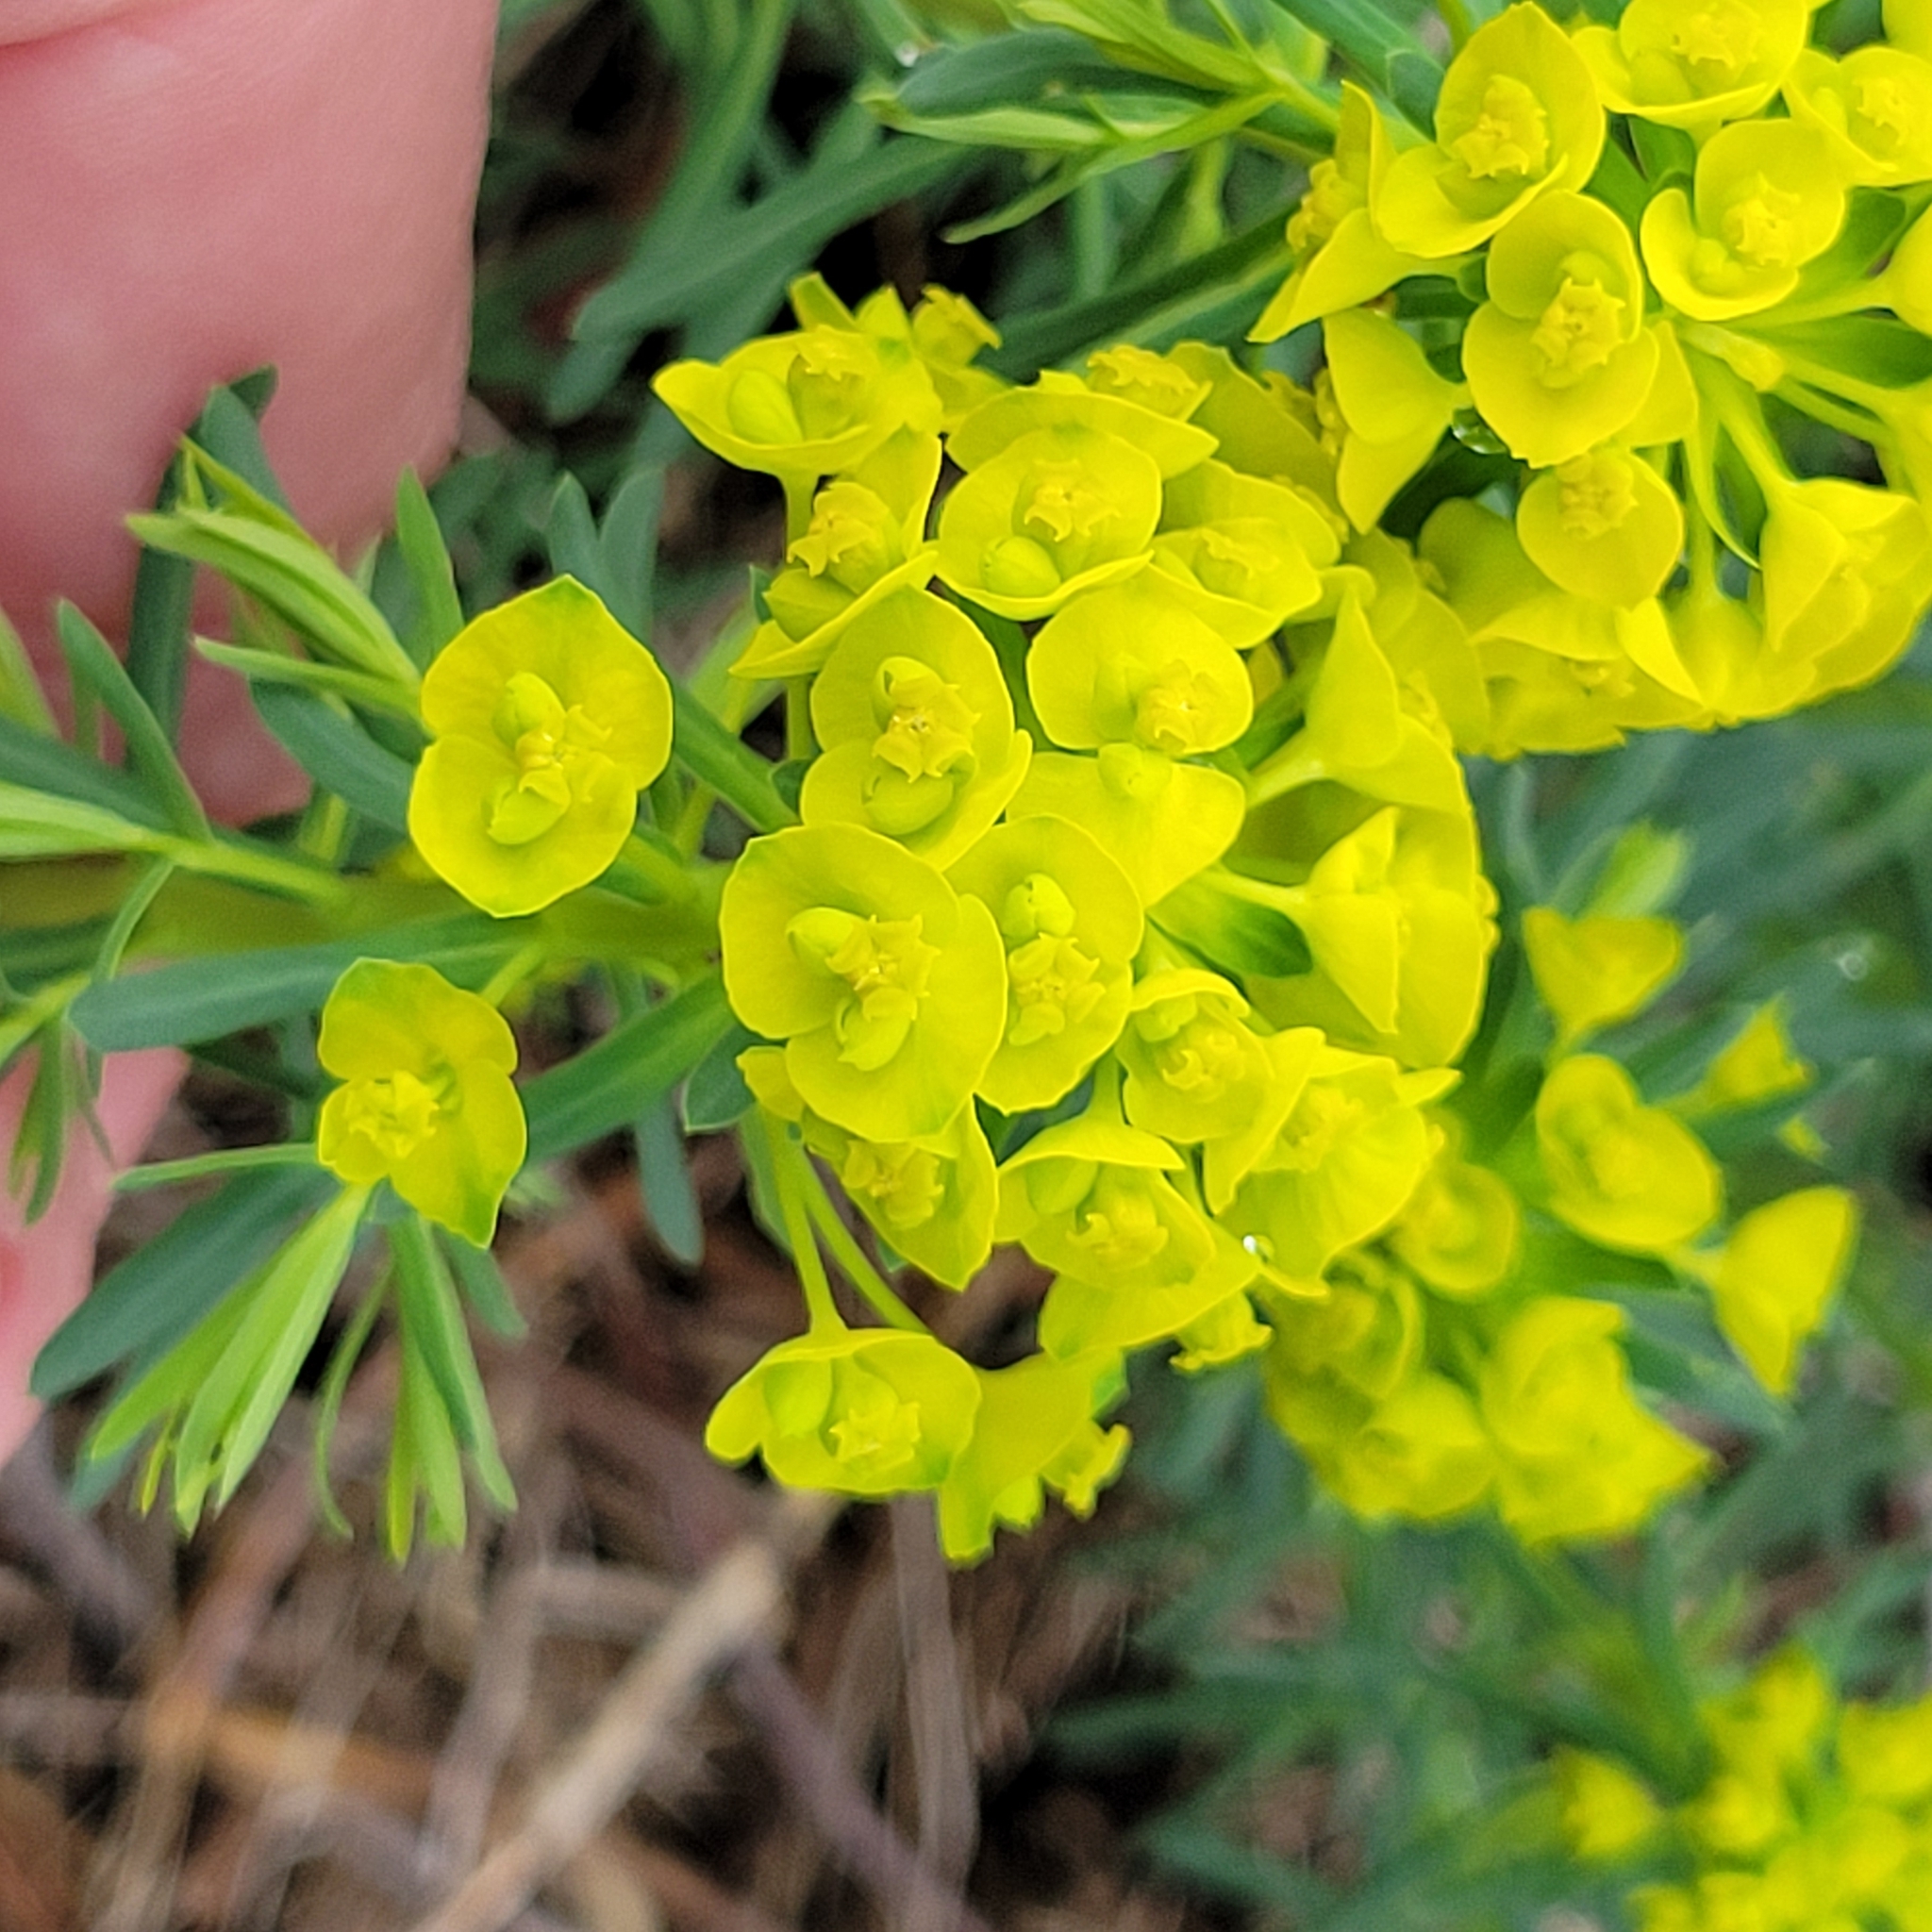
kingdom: Plantae
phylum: Tracheophyta
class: Magnoliopsida
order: Malpighiales
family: Euphorbiaceae
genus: Euphorbia
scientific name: Euphorbia cyparissias
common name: Cypress spurge
